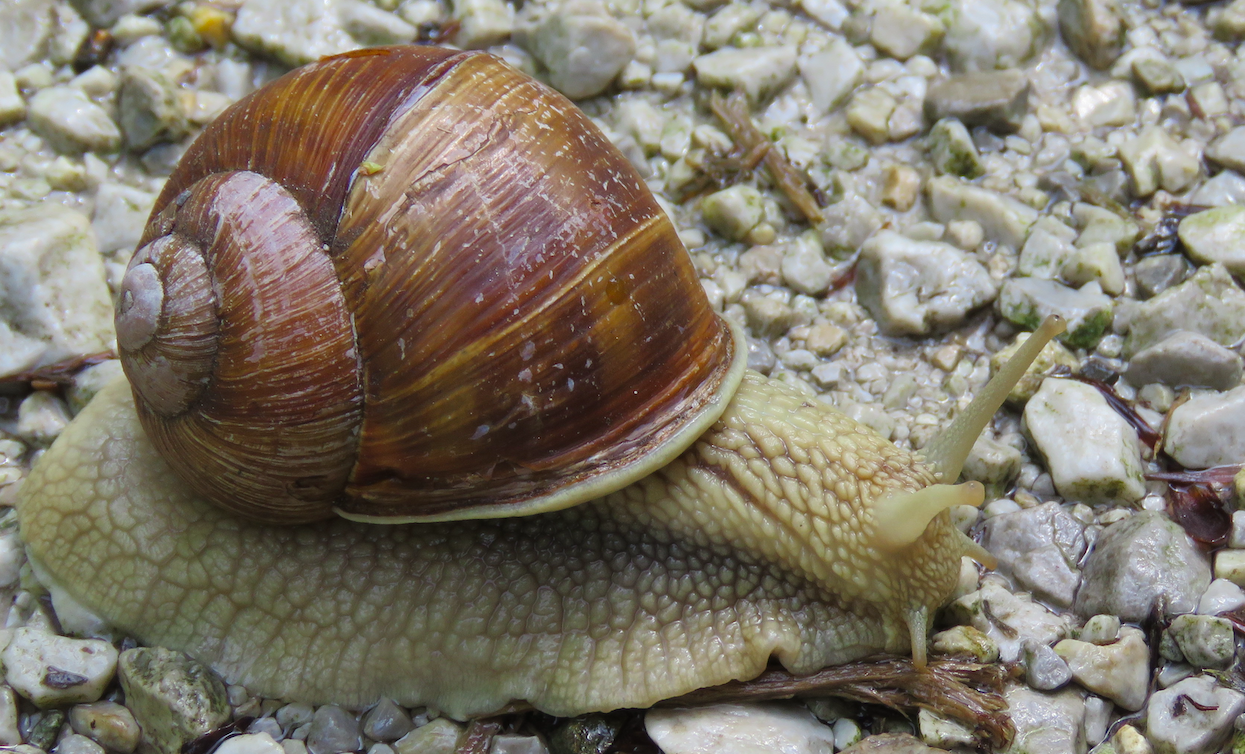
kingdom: Animalia
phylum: Mollusca
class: Gastropoda
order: Stylommatophora
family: Helicidae
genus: Helix
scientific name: Helix pomatia
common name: Roman snail
